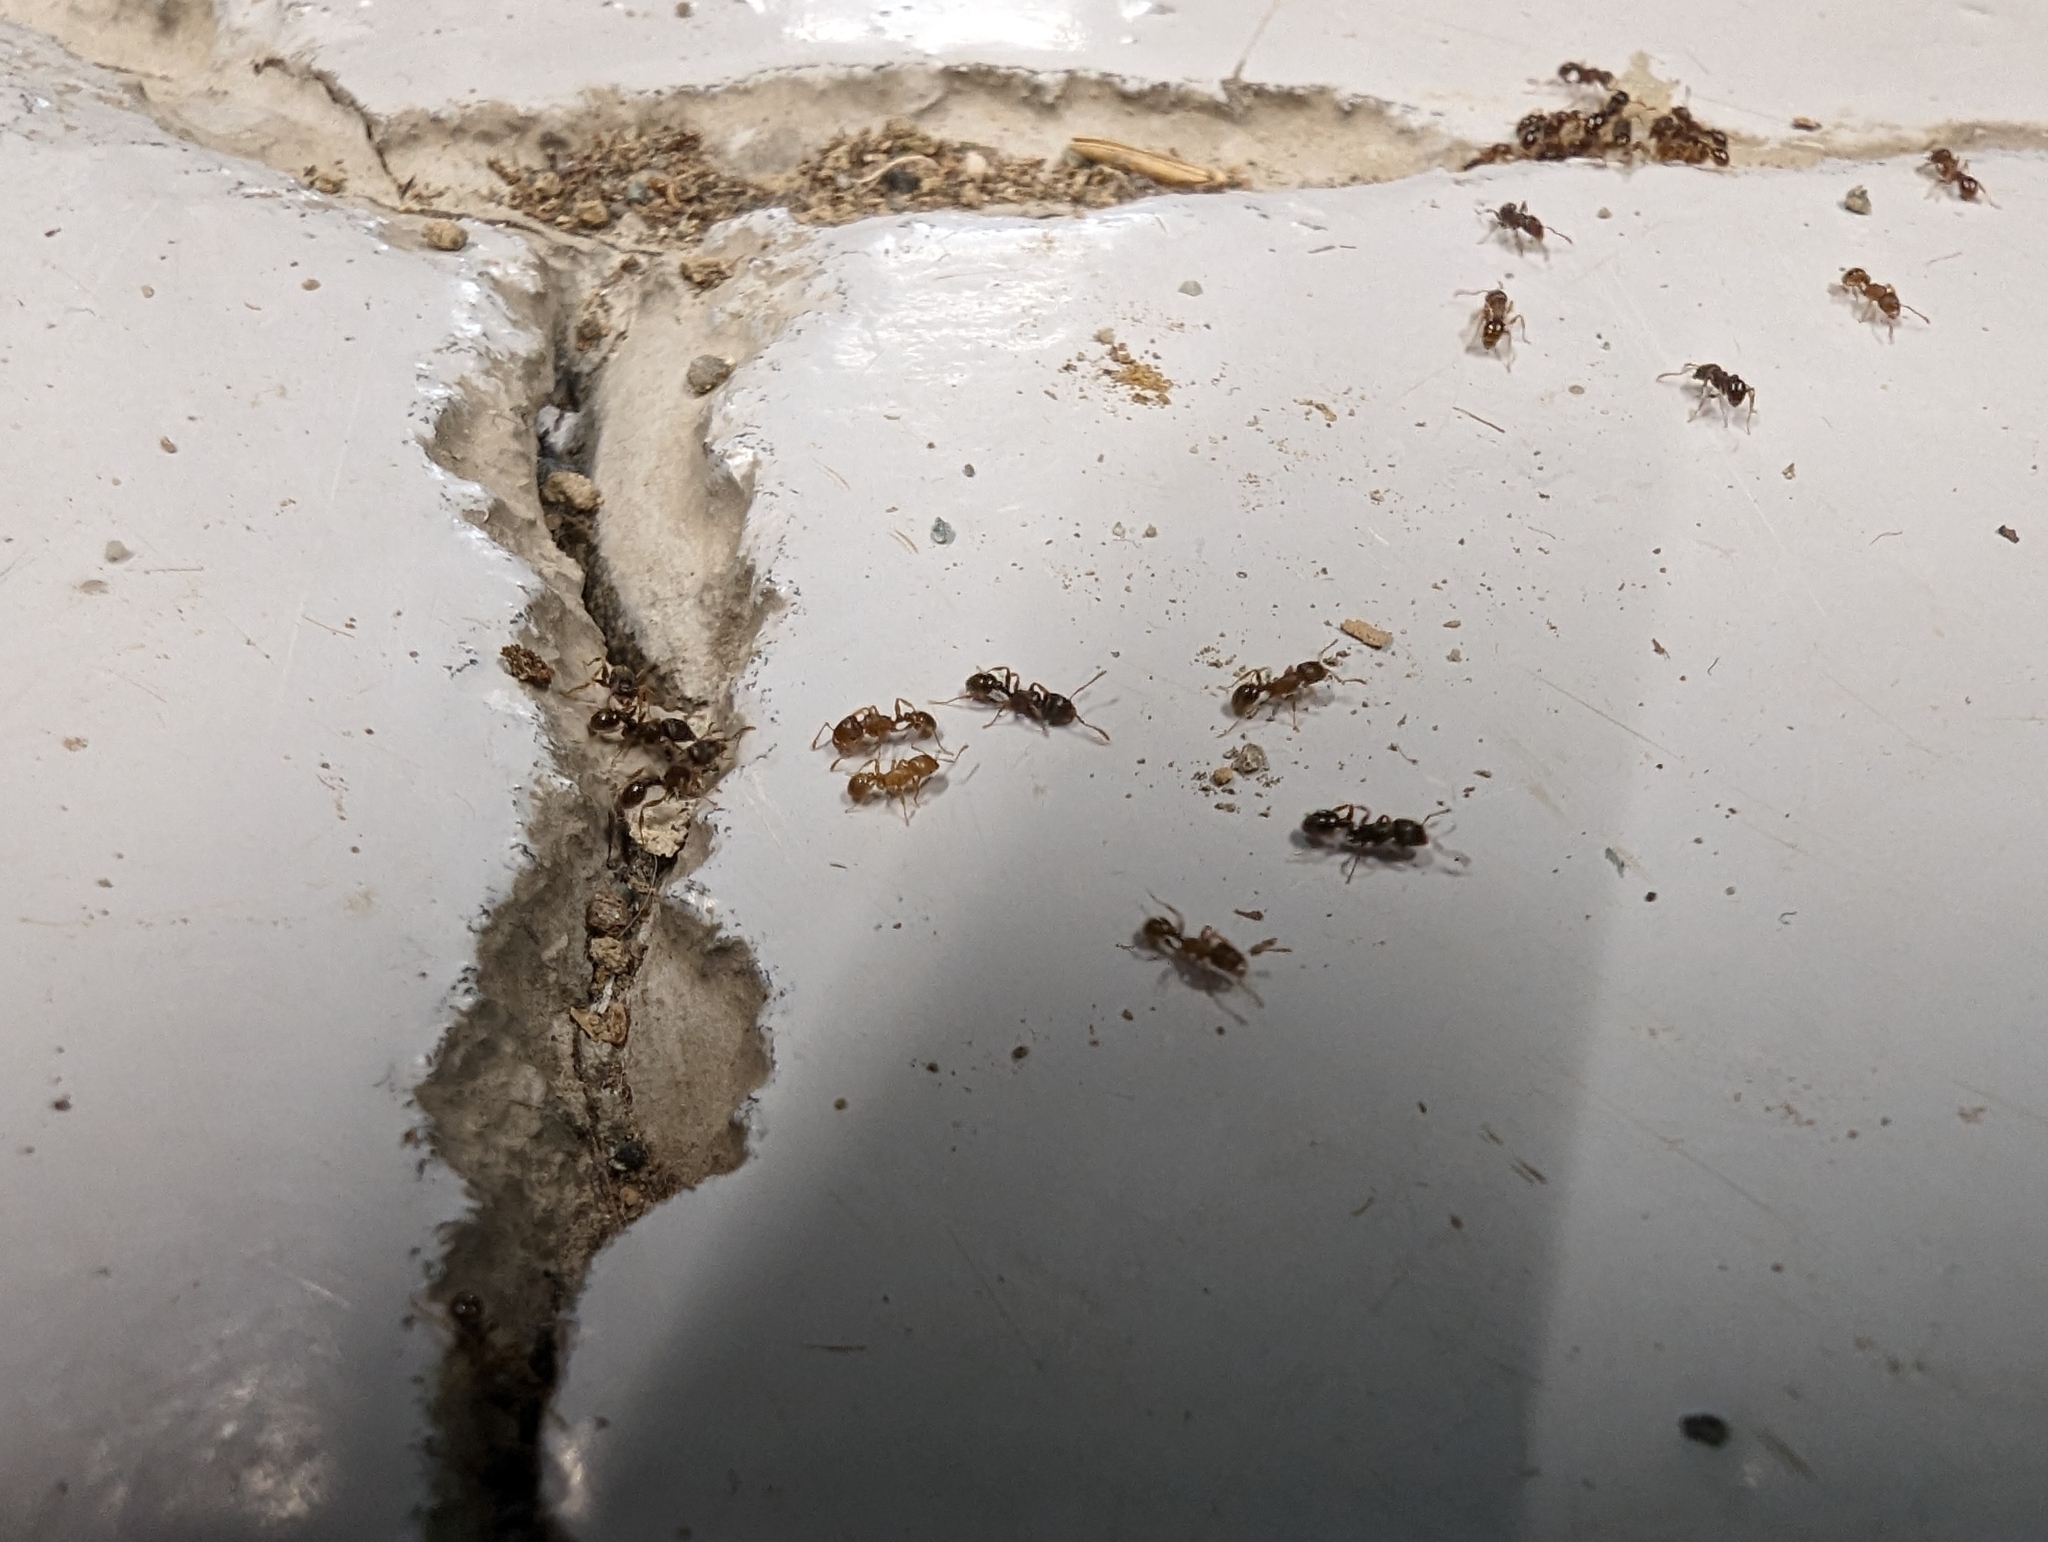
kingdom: Animalia
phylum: Arthropoda
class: Insecta
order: Hymenoptera
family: Formicidae
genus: Tetramorium
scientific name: Tetramorium immigrans
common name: Pavement ant
